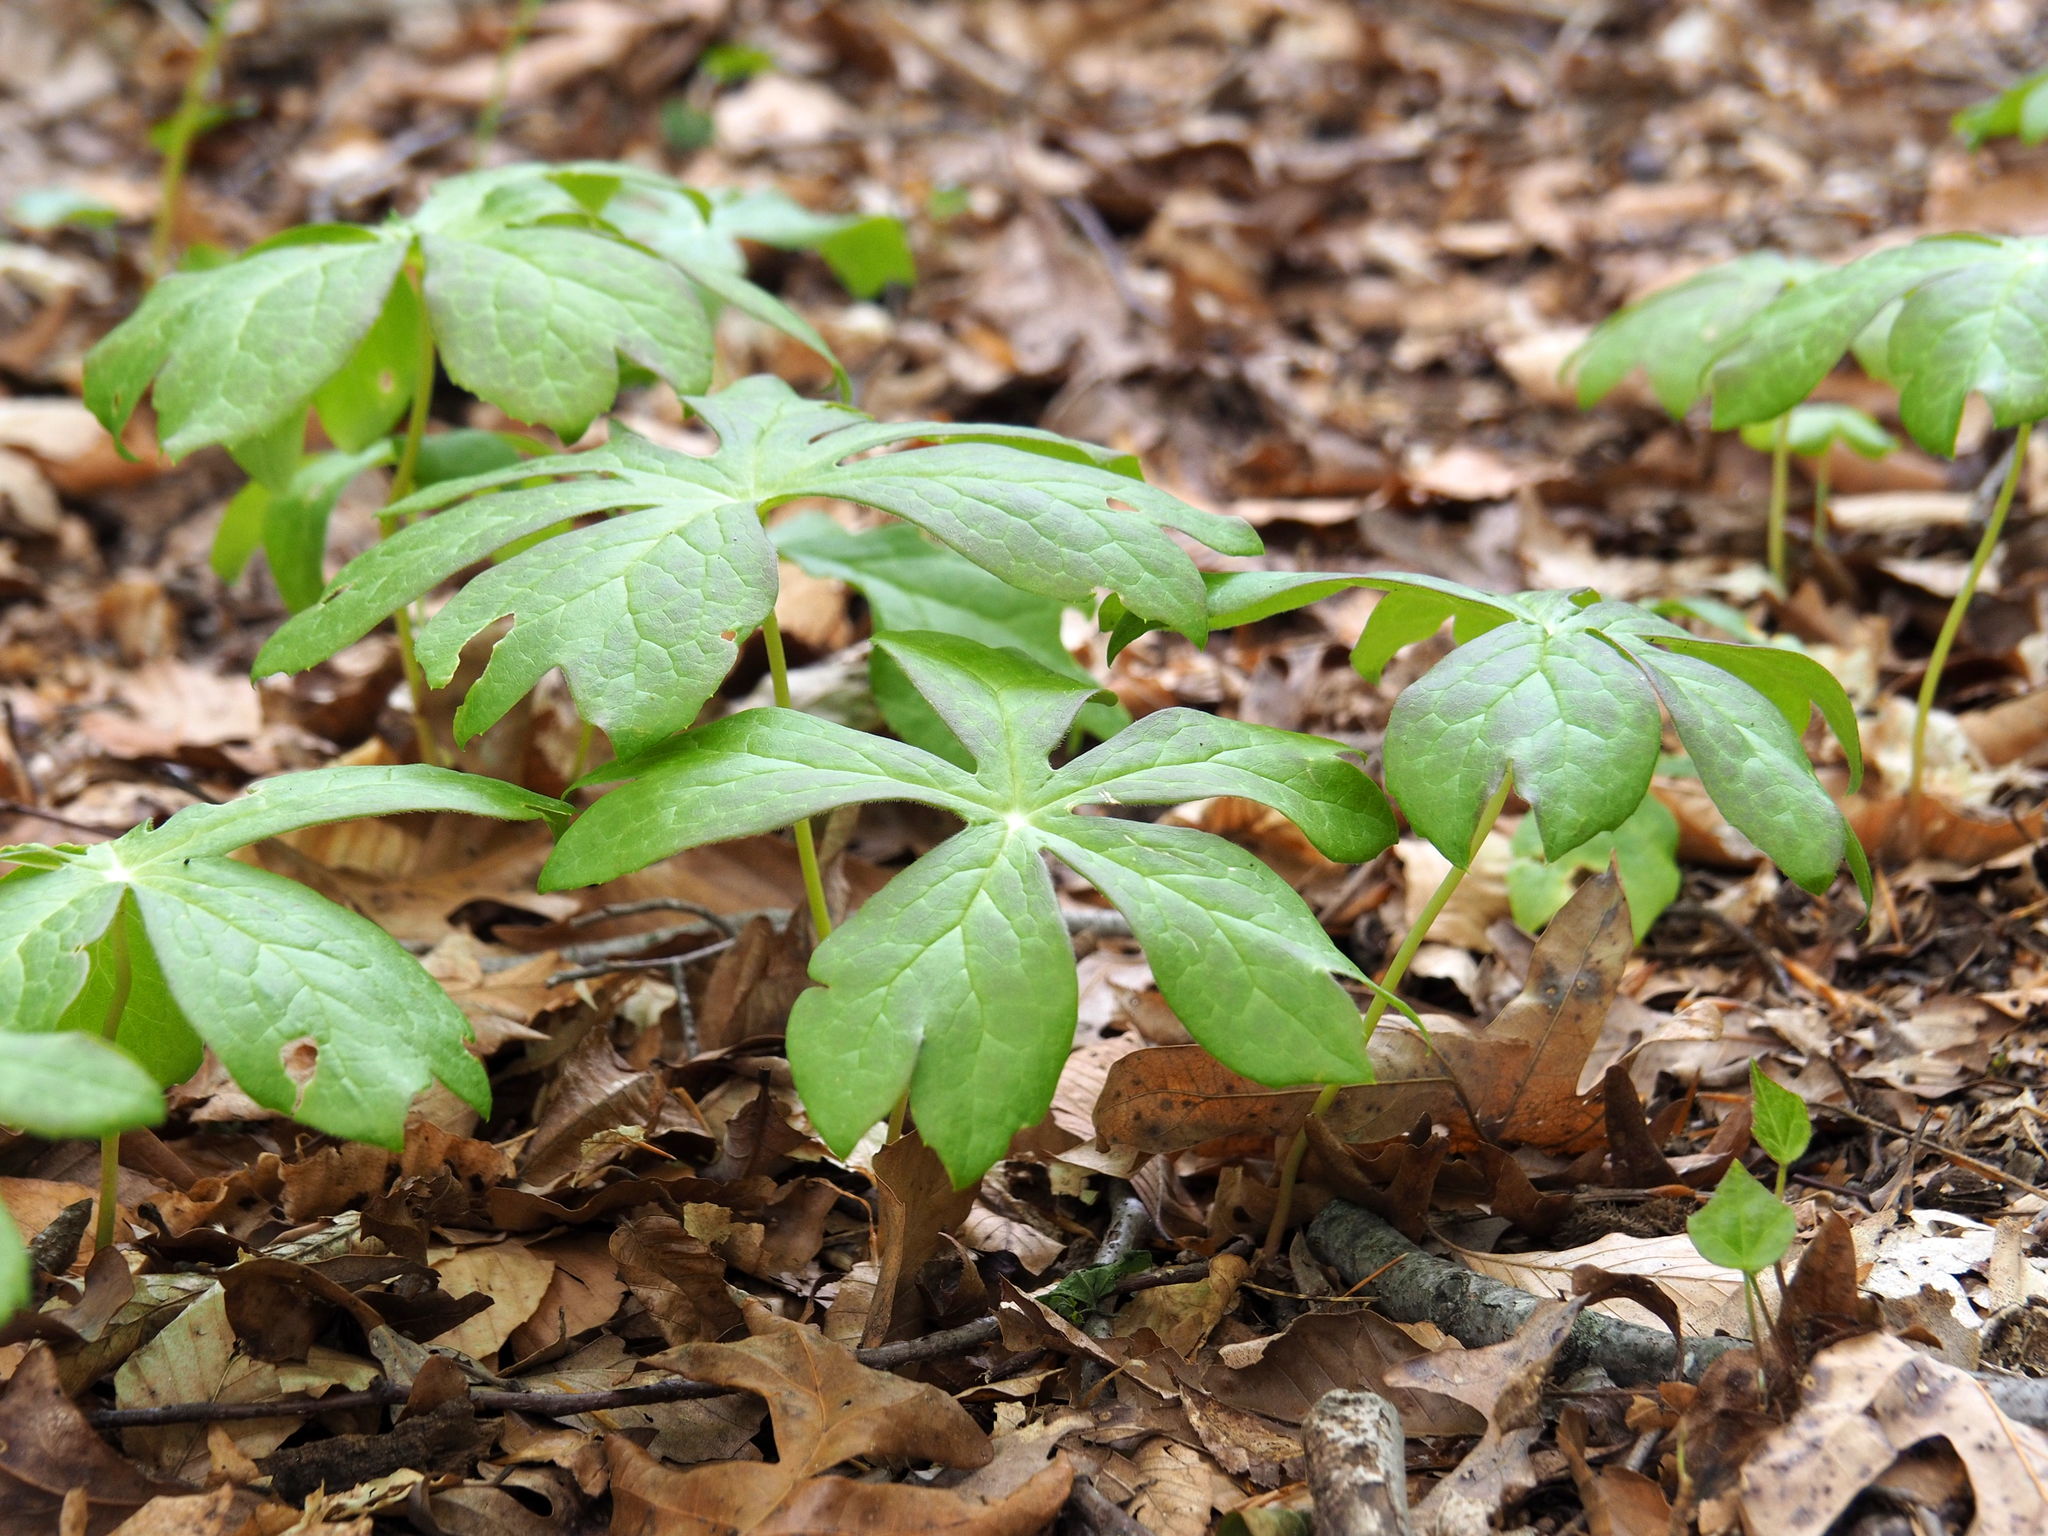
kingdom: Plantae
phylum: Tracheophyta
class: Magnoliopsida
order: Ranunculales
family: Berberidaceae
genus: Podophyllum
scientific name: Podophyllum peltatum
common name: Wild mandrake
